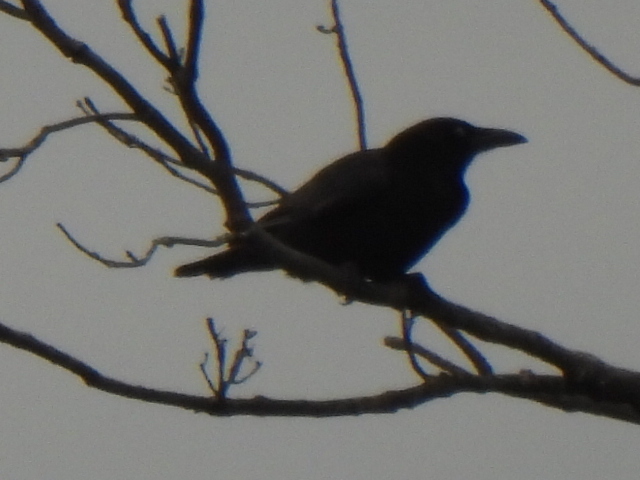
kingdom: Animalia
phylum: Chordata
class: Aves
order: Passeriformes
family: Corvidae
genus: Corvus
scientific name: Corvus brachyrhynchos
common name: American crow
